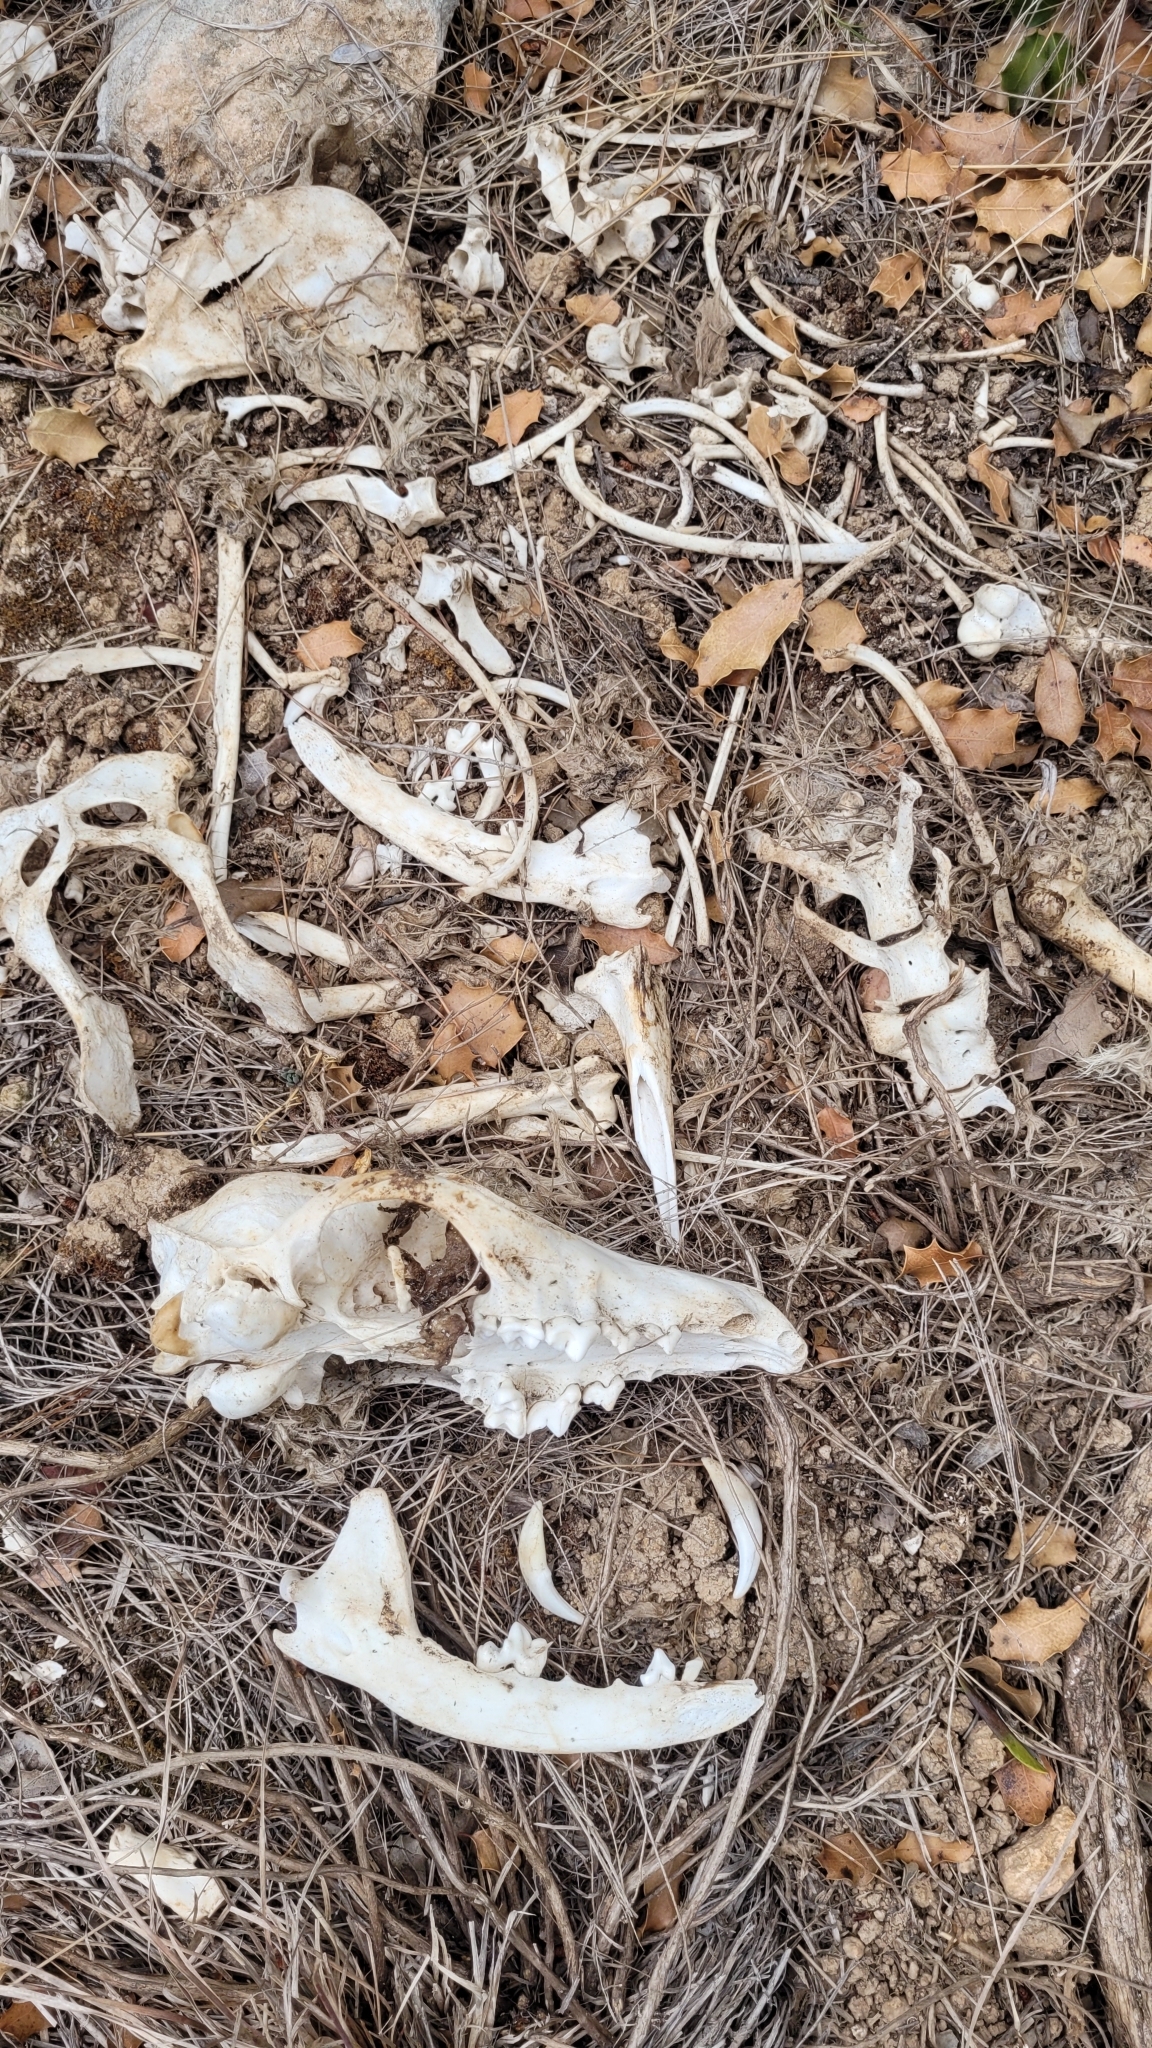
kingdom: Animalia
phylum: Chordata
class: Mammalia
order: Carnivora
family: Canidae
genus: Vulpes
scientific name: Vulpes vulpes
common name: Red fox
